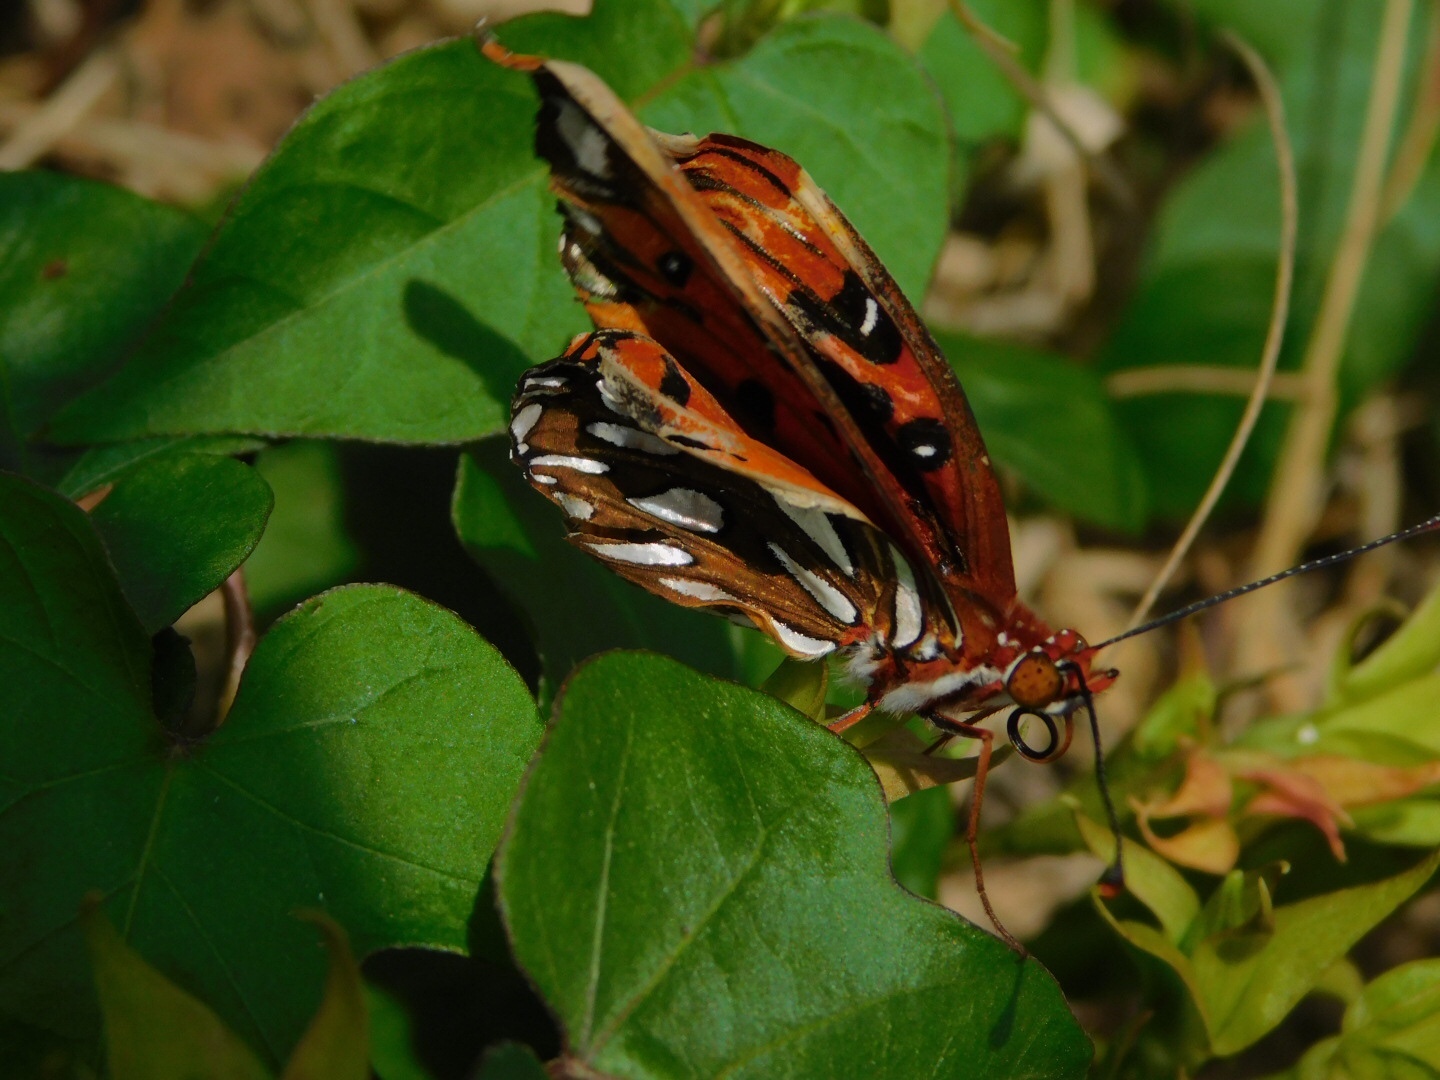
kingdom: Animalia
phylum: Arthropoda
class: Insecta
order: Lepidoptera
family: Nymphalidae
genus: Dione
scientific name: Dione vanillae
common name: Gulf fritillary
